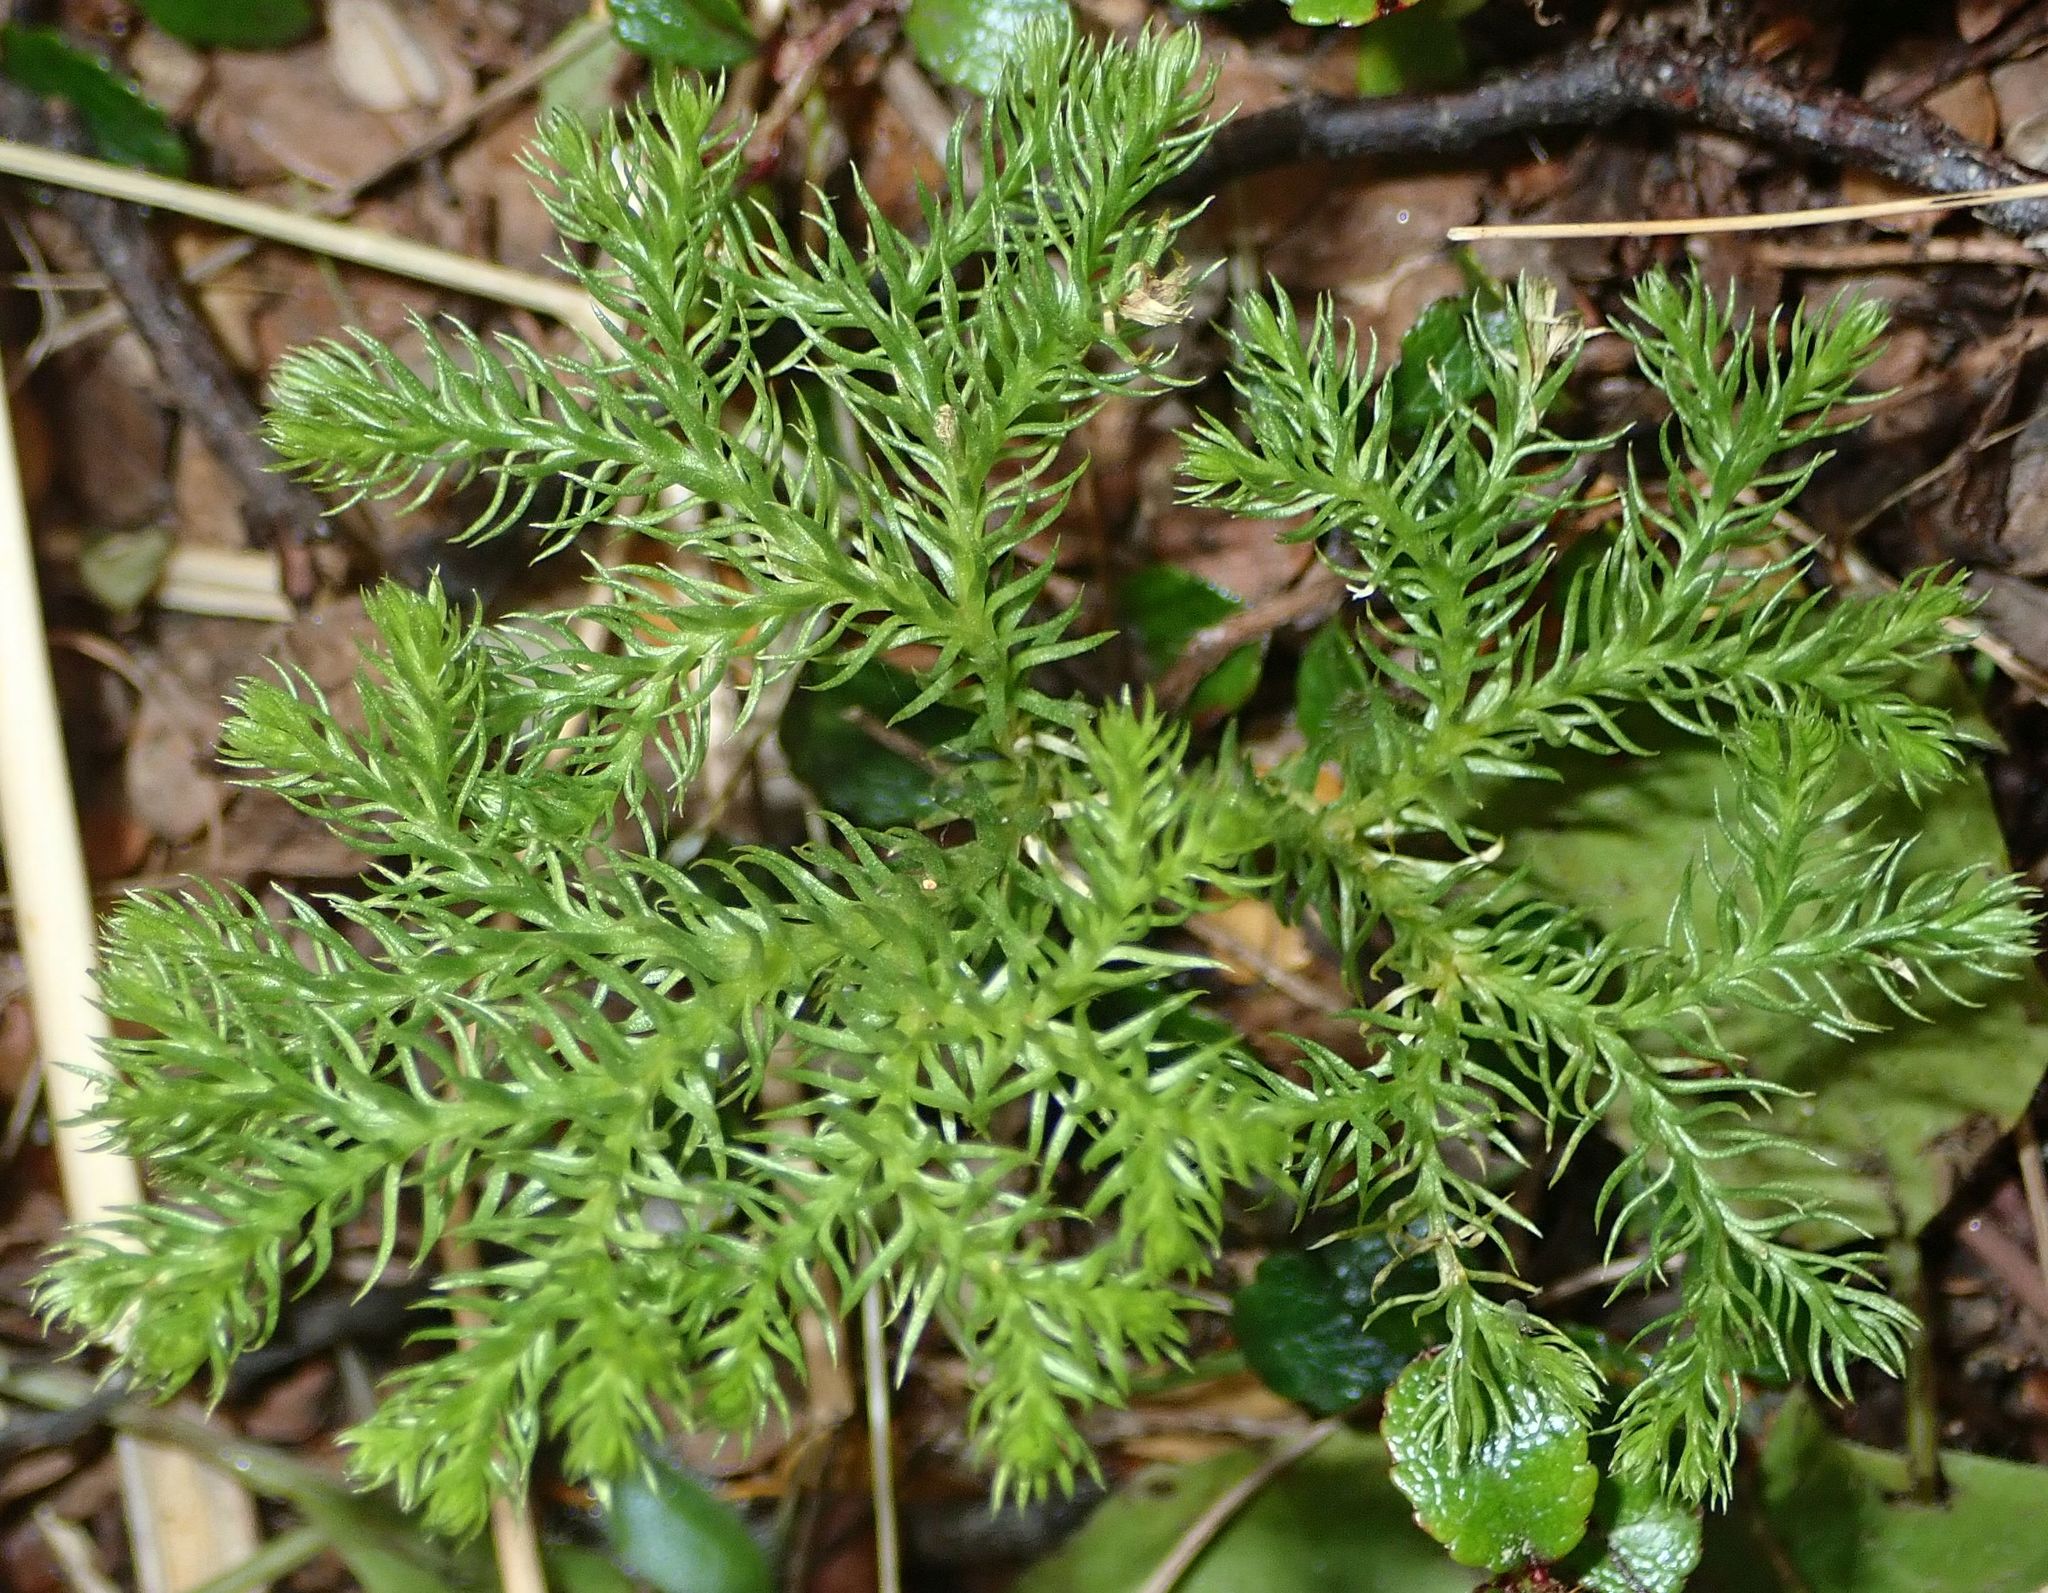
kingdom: Plantae
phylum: Tracheophyta
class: Lycopodiopsida
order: Lycopodiales
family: Lycopodiaceae
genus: Austrolycopodium
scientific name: Austrolycopodium fastigiatum
